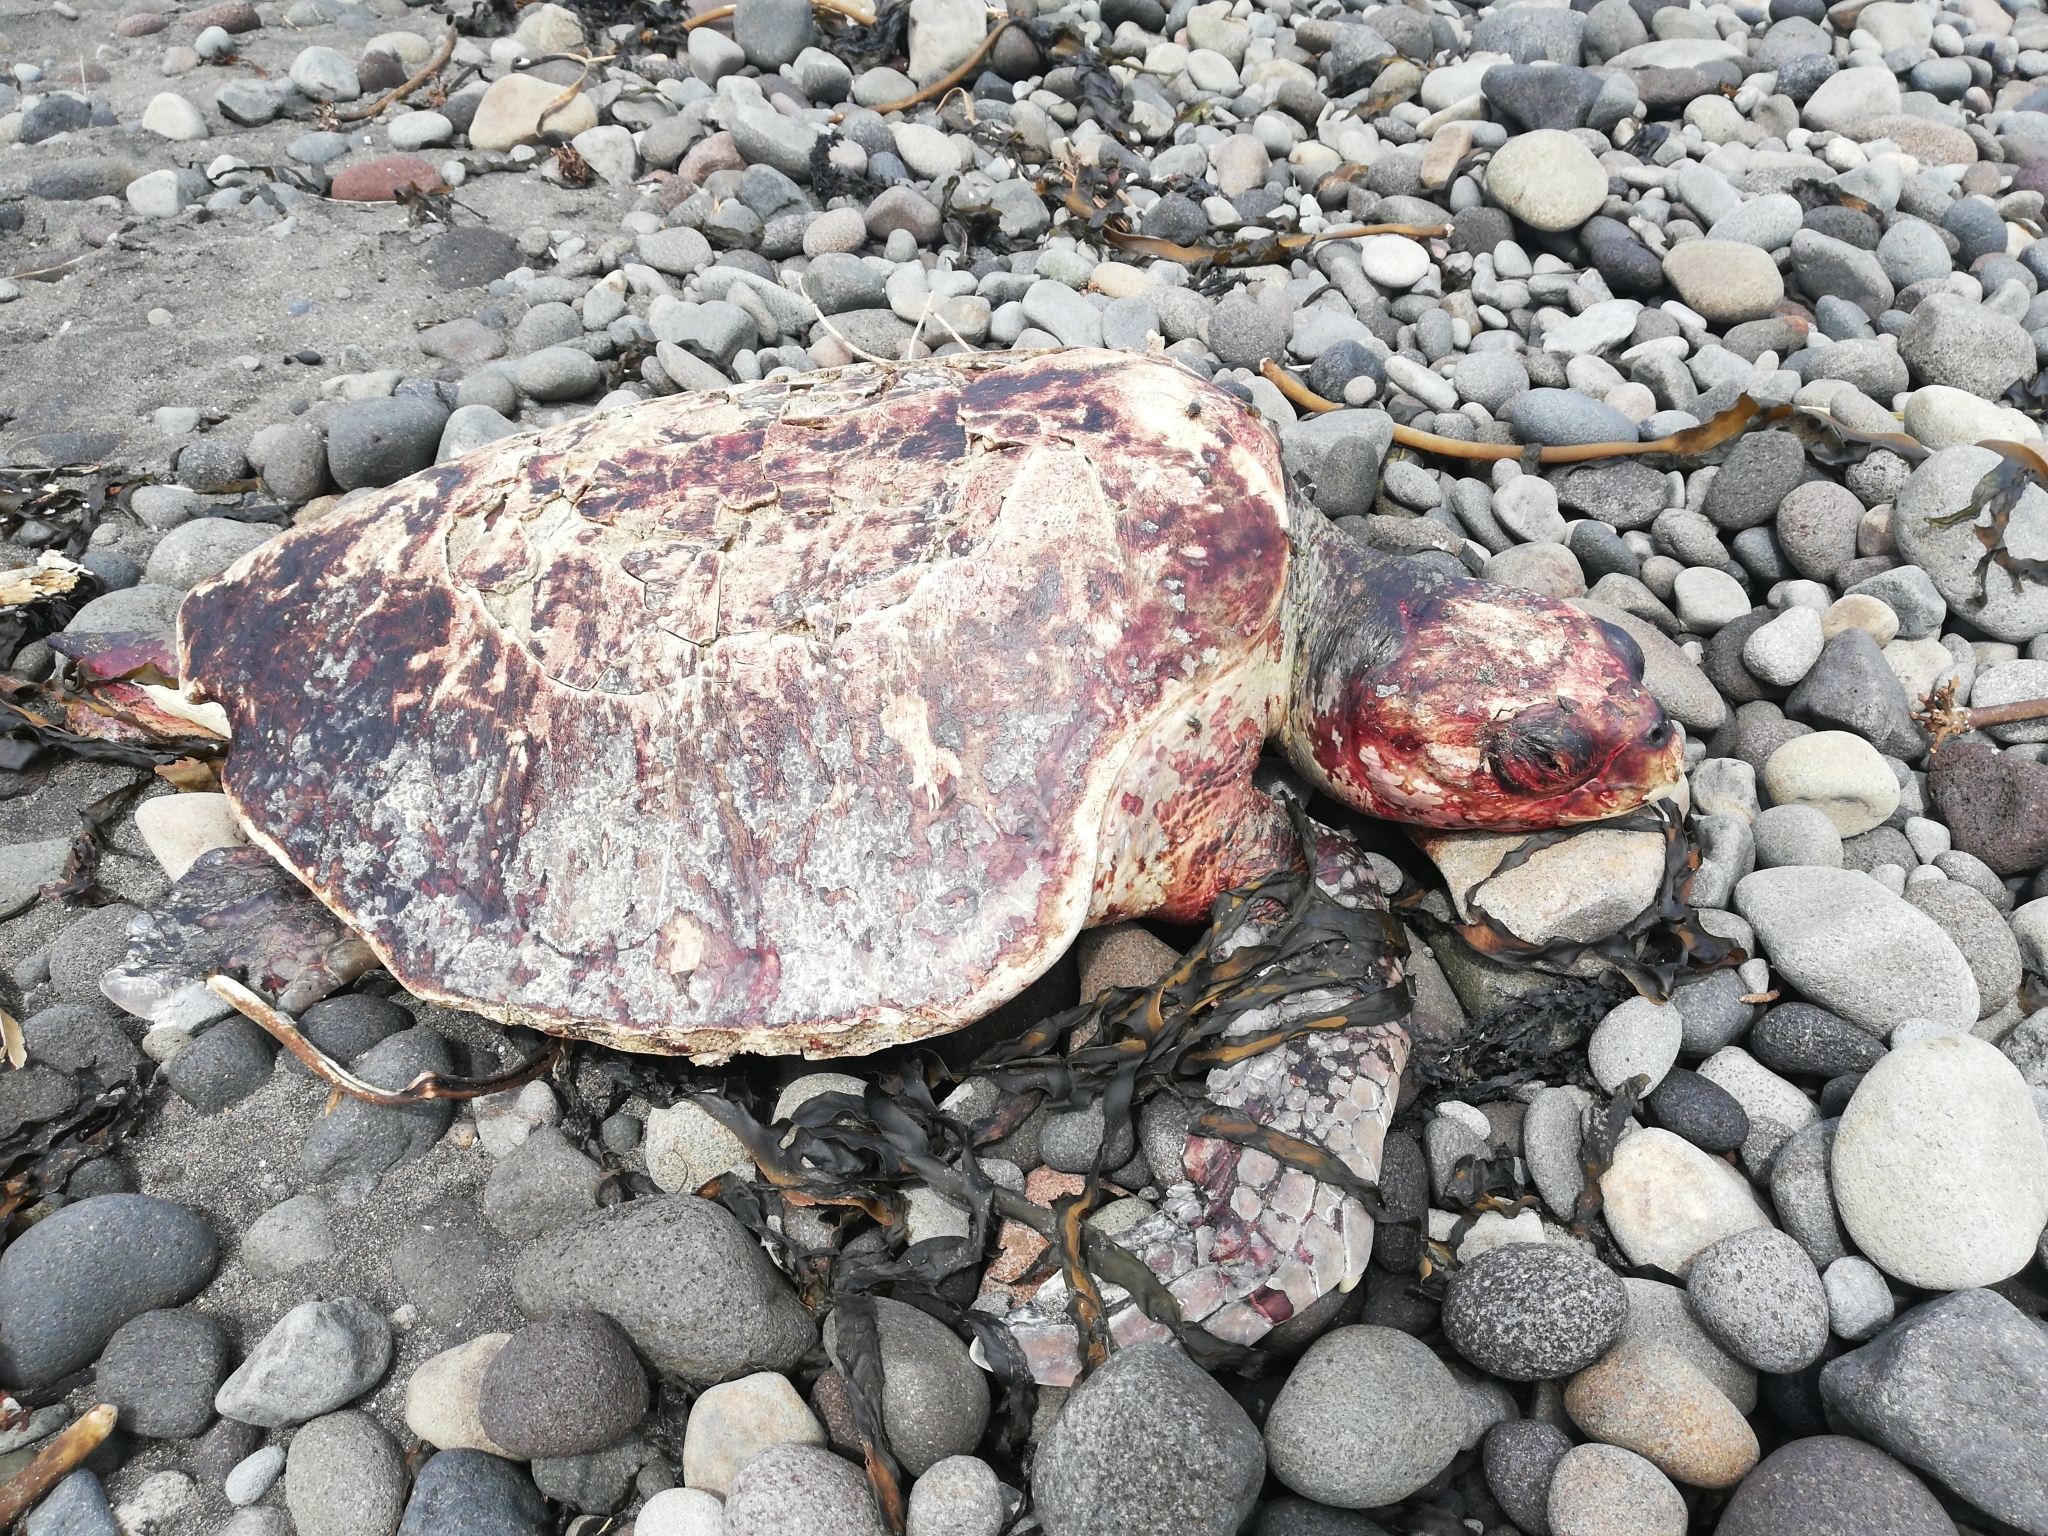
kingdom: Animalia
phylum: Chordata
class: Testudines
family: Cheloniidae
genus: Lepidochelys
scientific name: Lepidochelys olivacea
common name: Olive ridley
